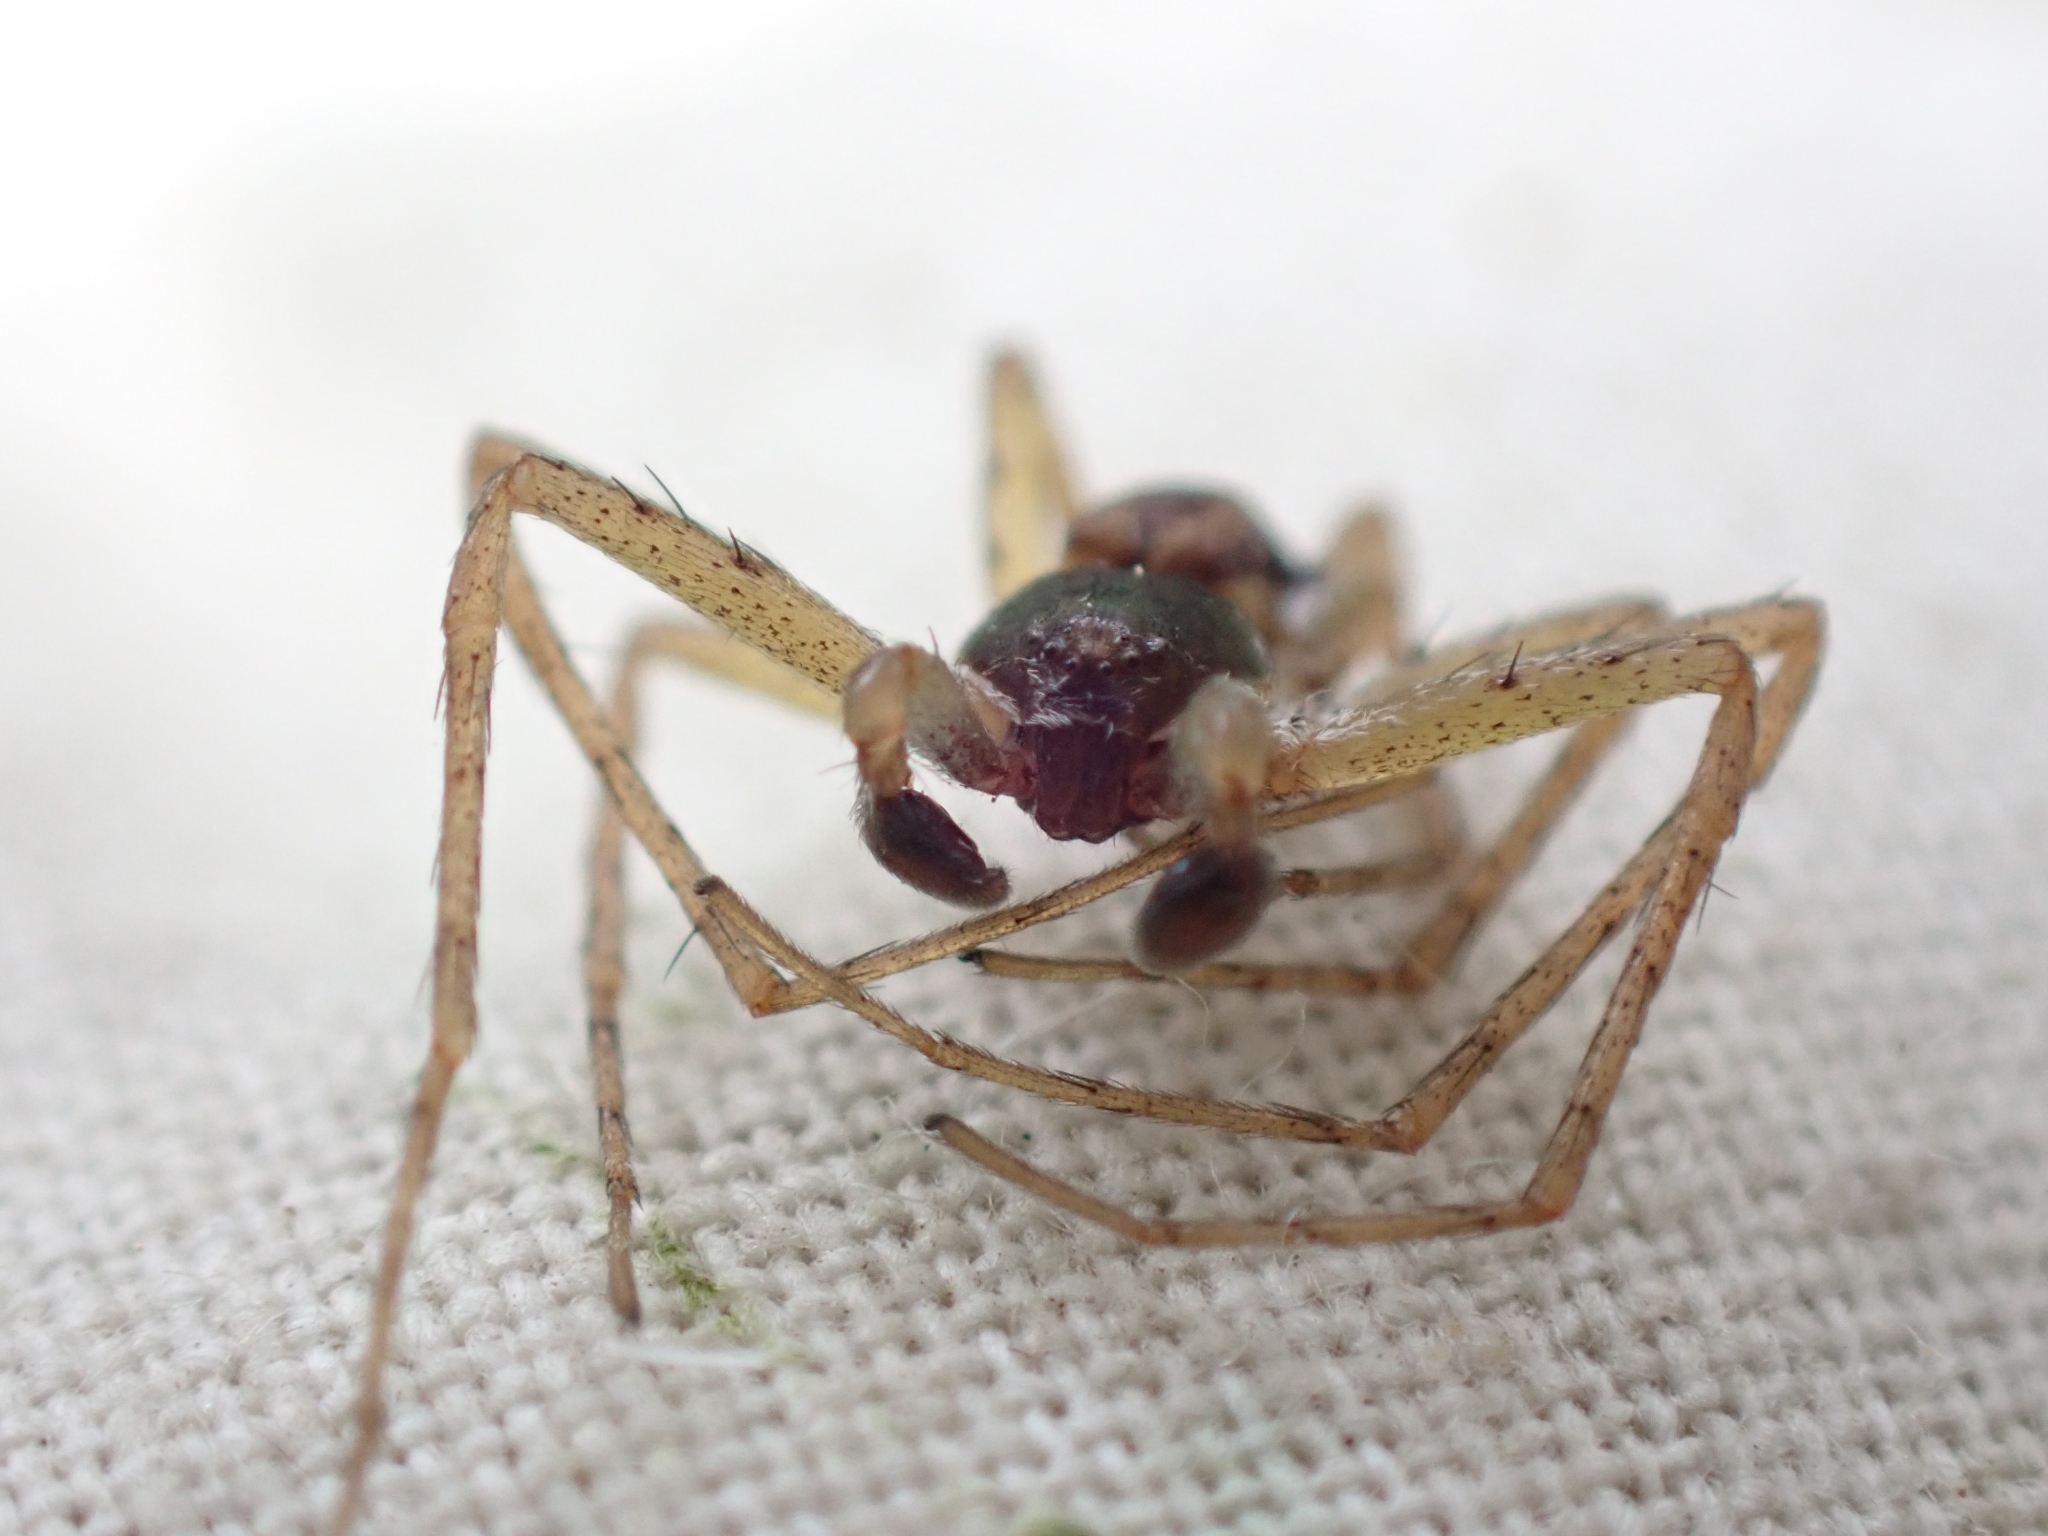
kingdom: Animalia
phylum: Arthropoda
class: Arachnida
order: Araneae
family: Philodromidae
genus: Philodromus
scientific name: Philodromus dispar
